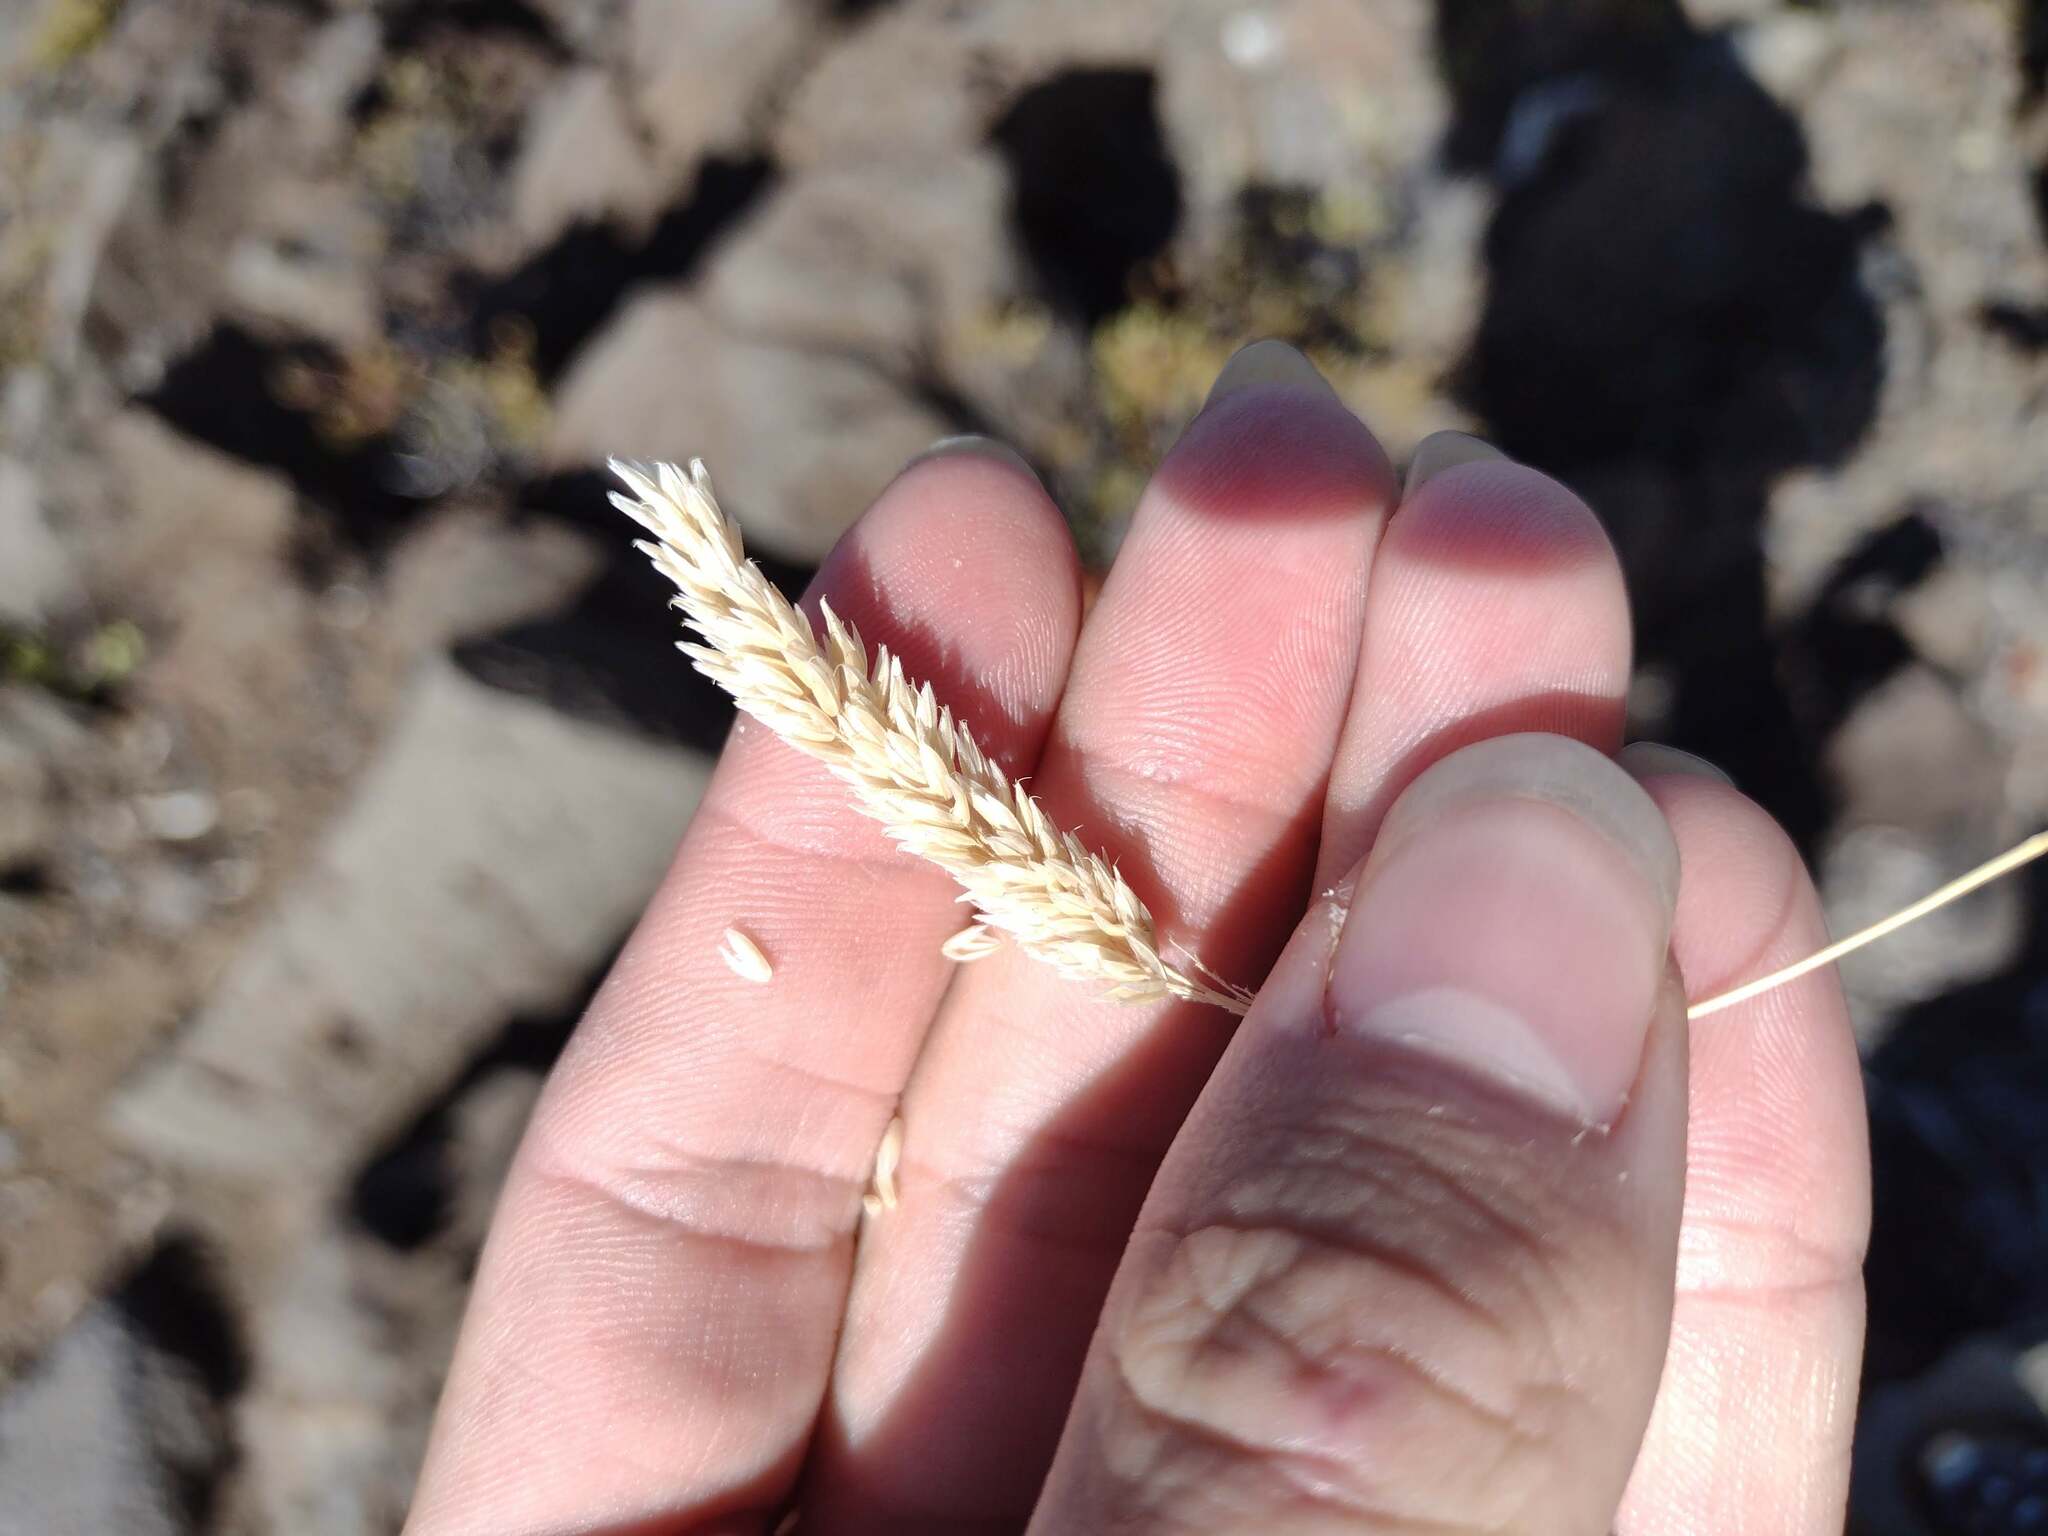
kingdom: Plantae
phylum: Tracheophyta
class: Liliopsida
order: Poales
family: Poaceae
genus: Holcus
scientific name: Holcus lanatus
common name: Yorkshire-fog
